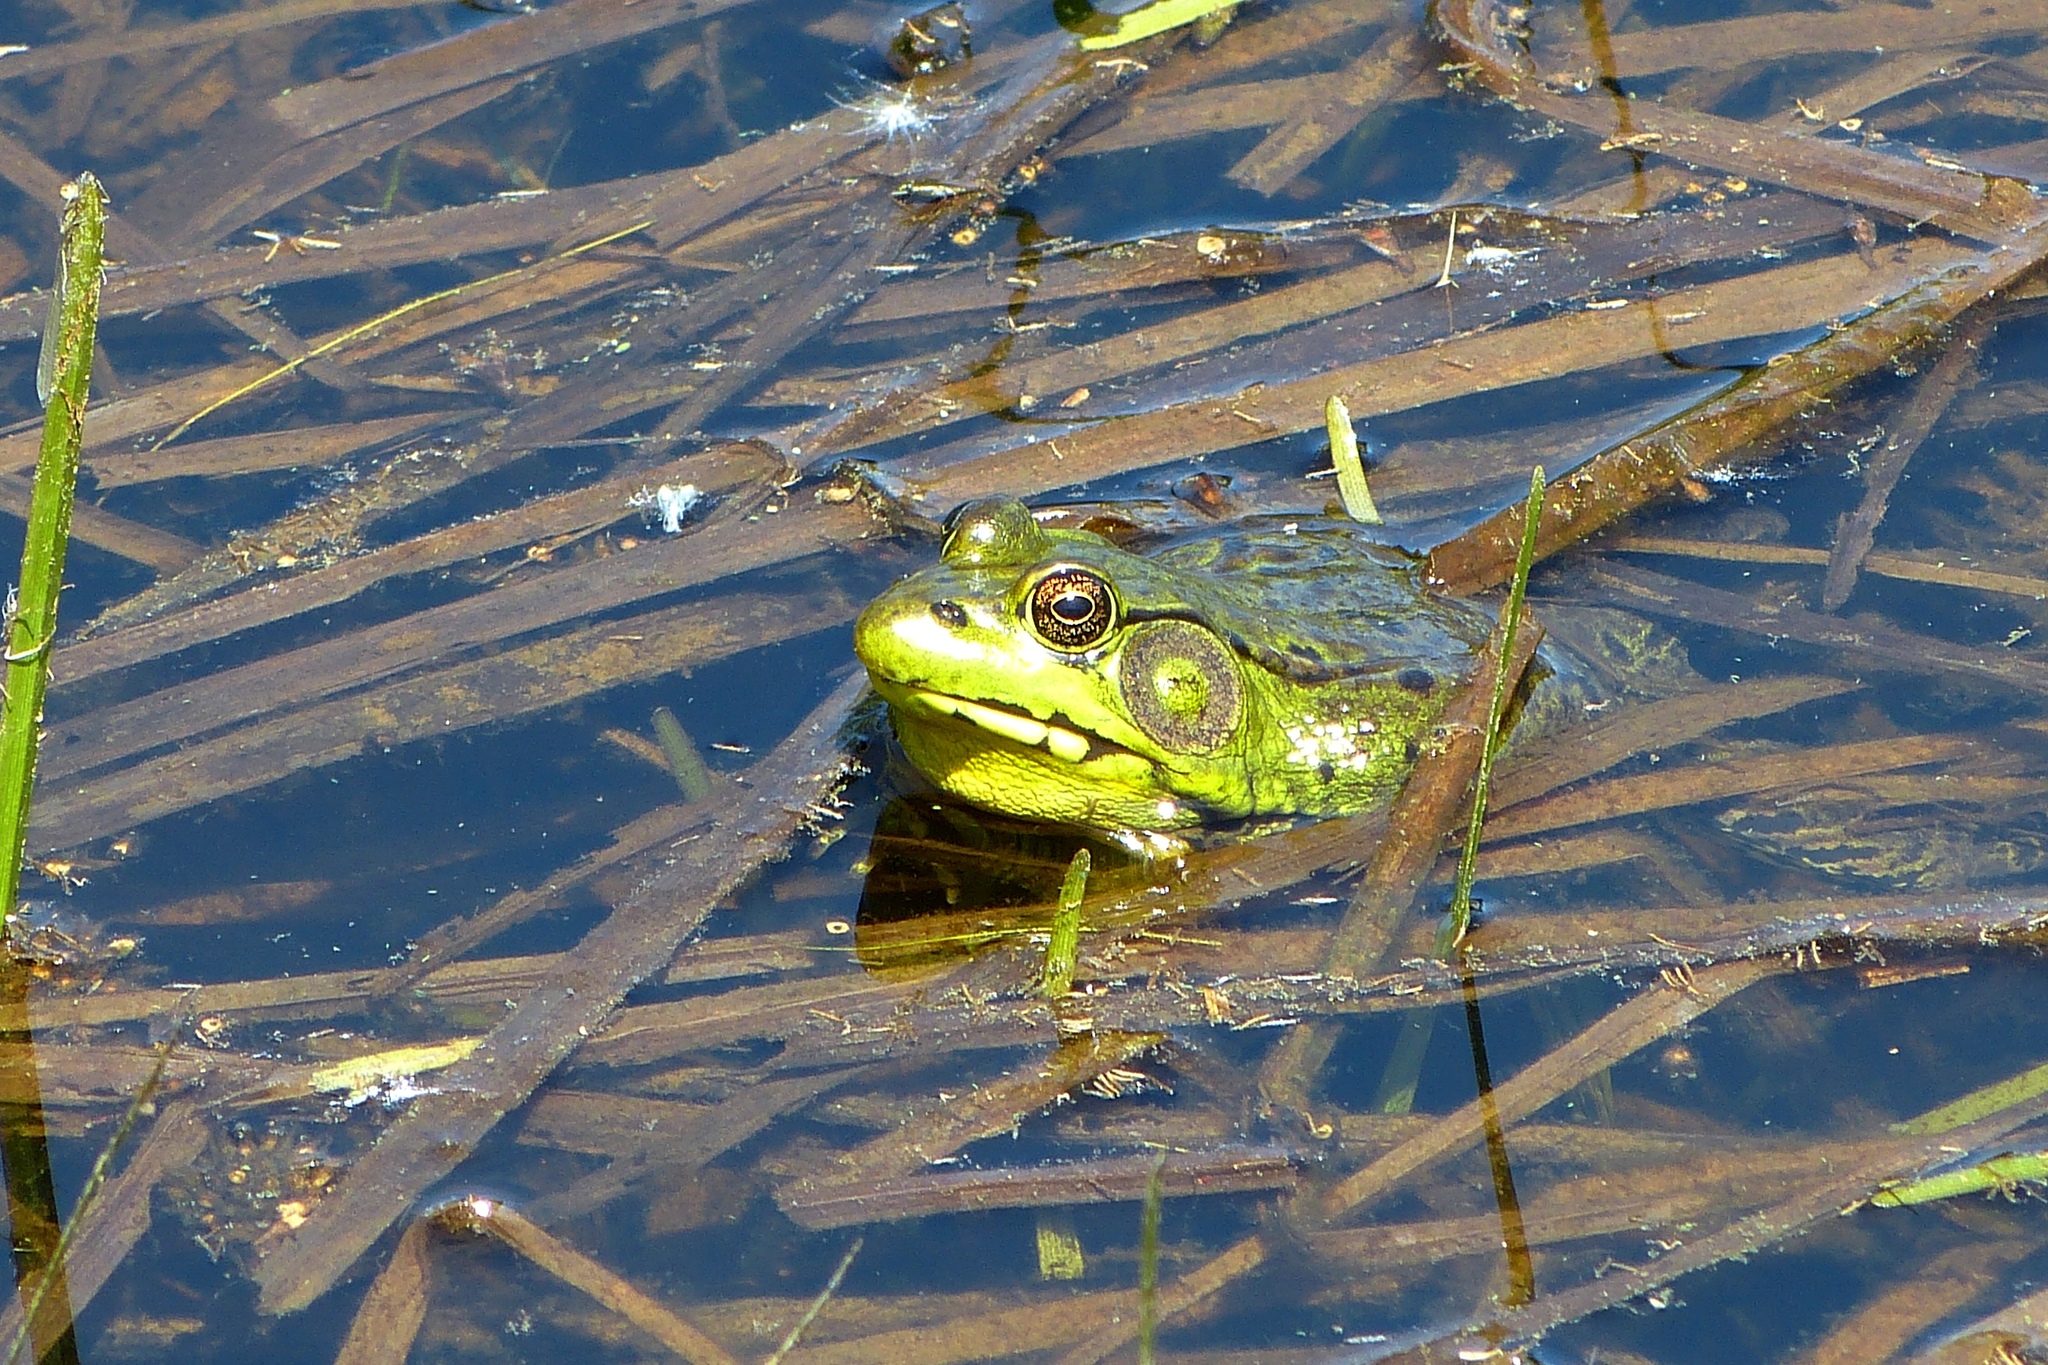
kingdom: Animalia
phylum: Chordata
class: Amphibia
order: Anura
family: Ranidae
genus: Lithobates
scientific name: Lithobates clamitans
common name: Green frog
